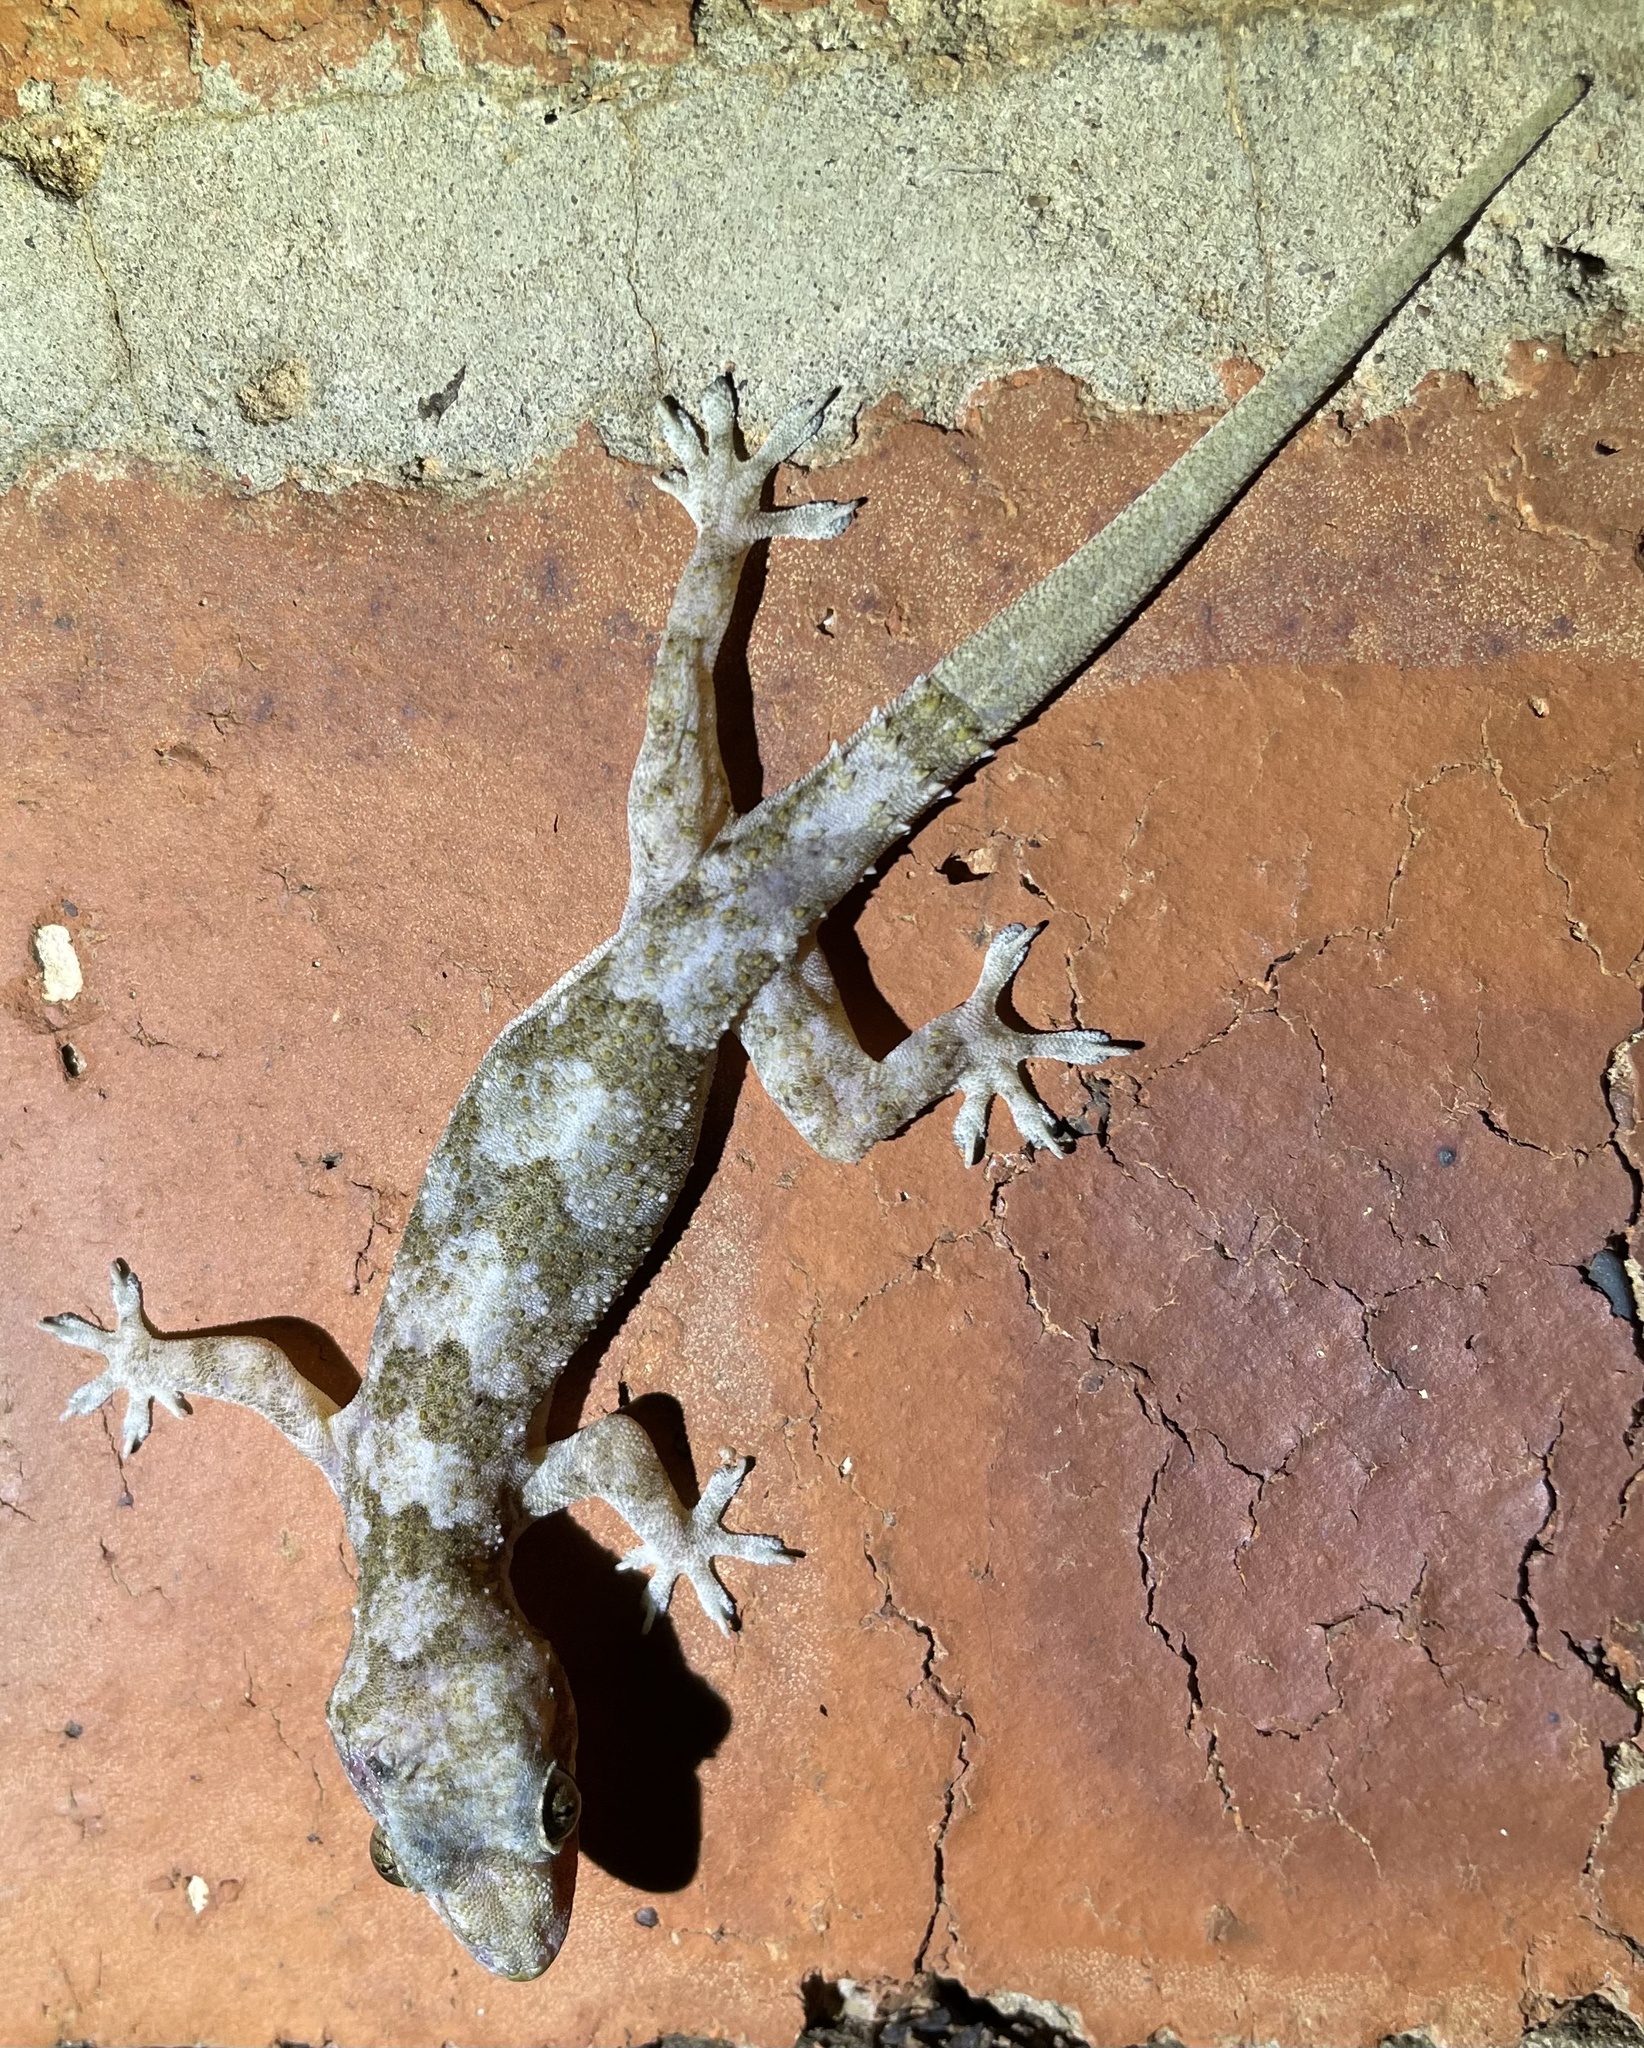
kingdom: Animalia
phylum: Chordata
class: Squamata
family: Gekkonidae
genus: Hemidactylus
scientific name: Hemidactylus mabouia
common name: House gecko
